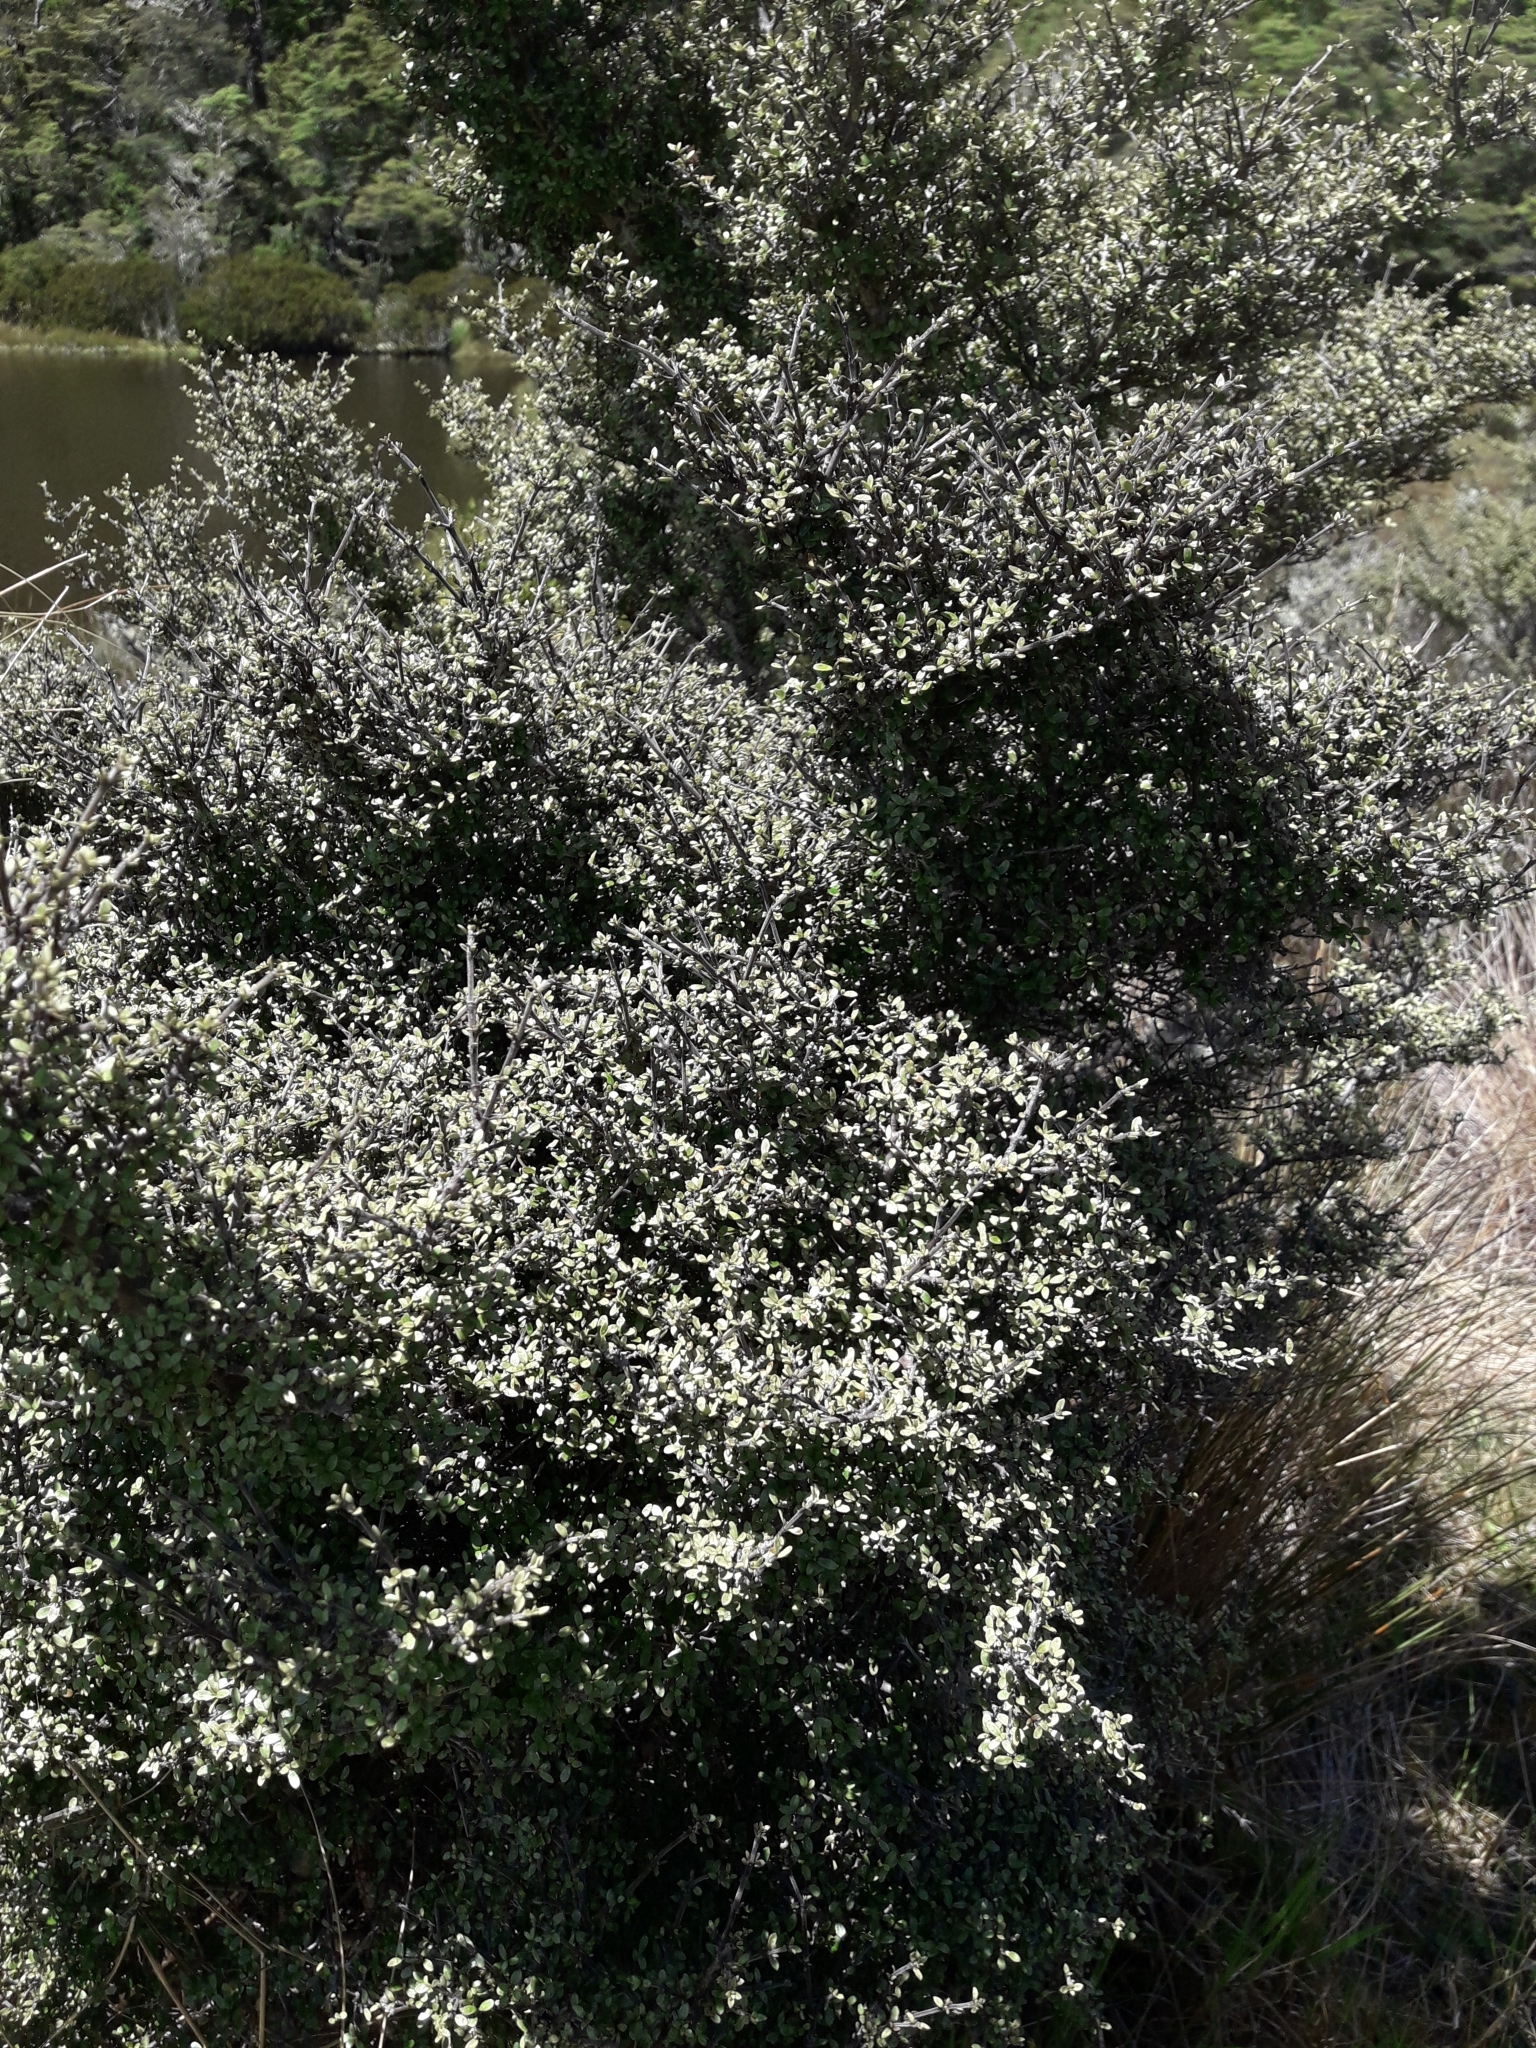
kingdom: Plantae
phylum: Tracheophyta
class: Magnoliopsida
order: Gentianales
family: Rubiaceae
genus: Coprosma
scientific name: Coprosma dumosa
